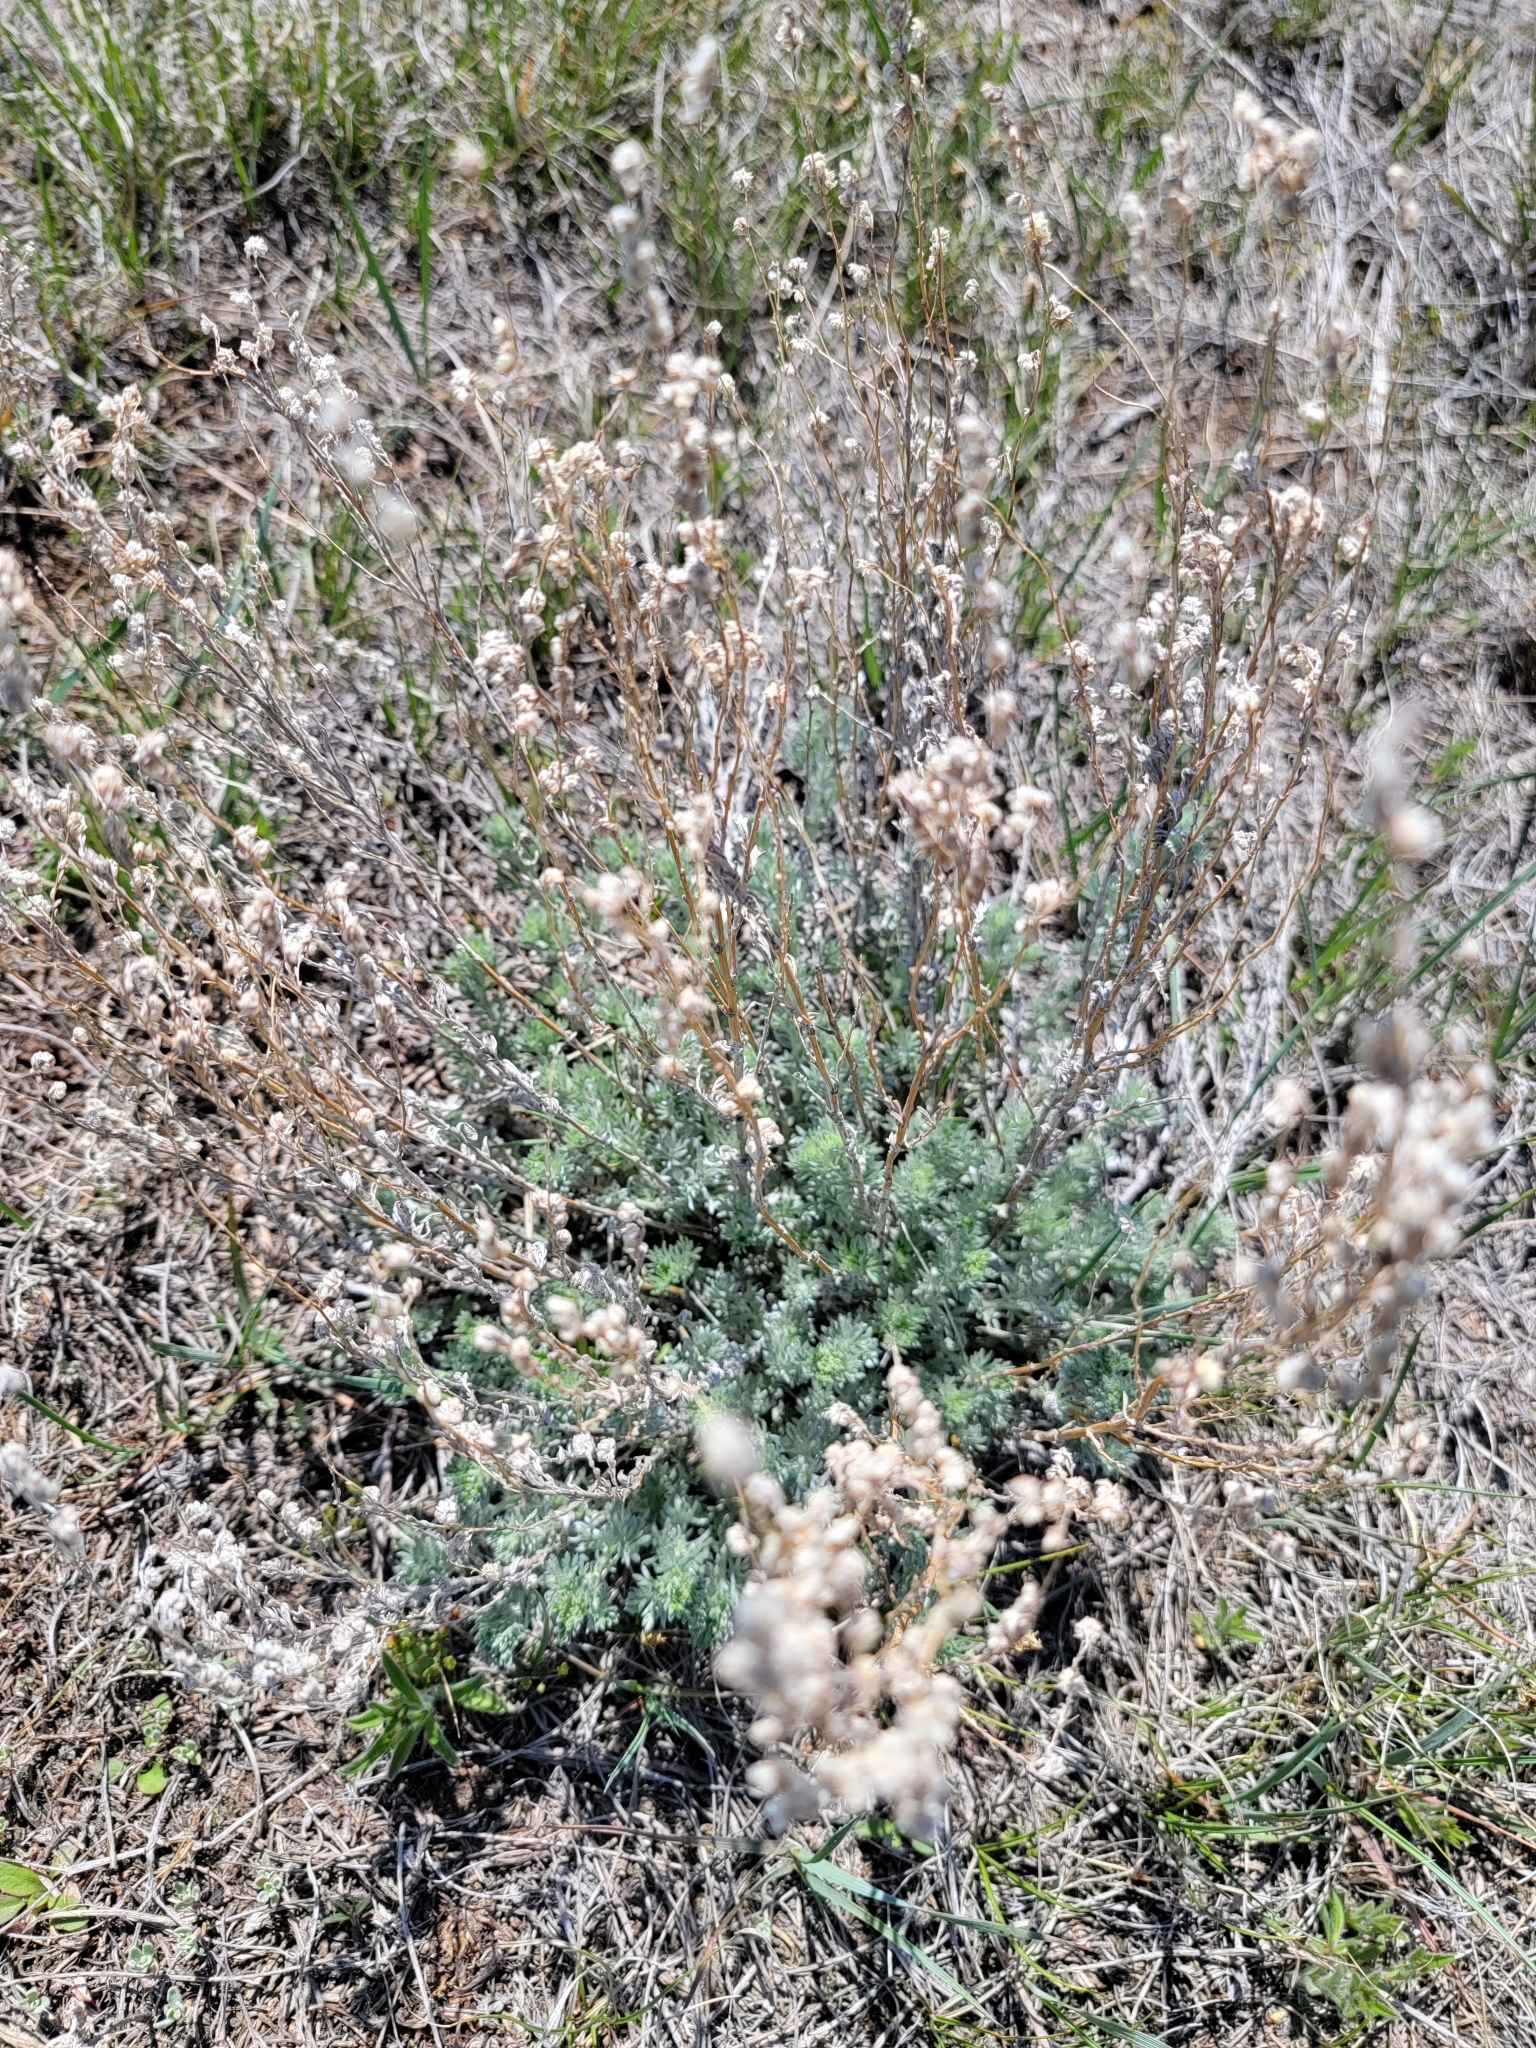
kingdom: Plantae
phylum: Tracheophyta
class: Magnoliopsida
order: Asterales
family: Asteraceae
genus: Artemisia
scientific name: Artemisia frigida
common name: Prairie sagewort
